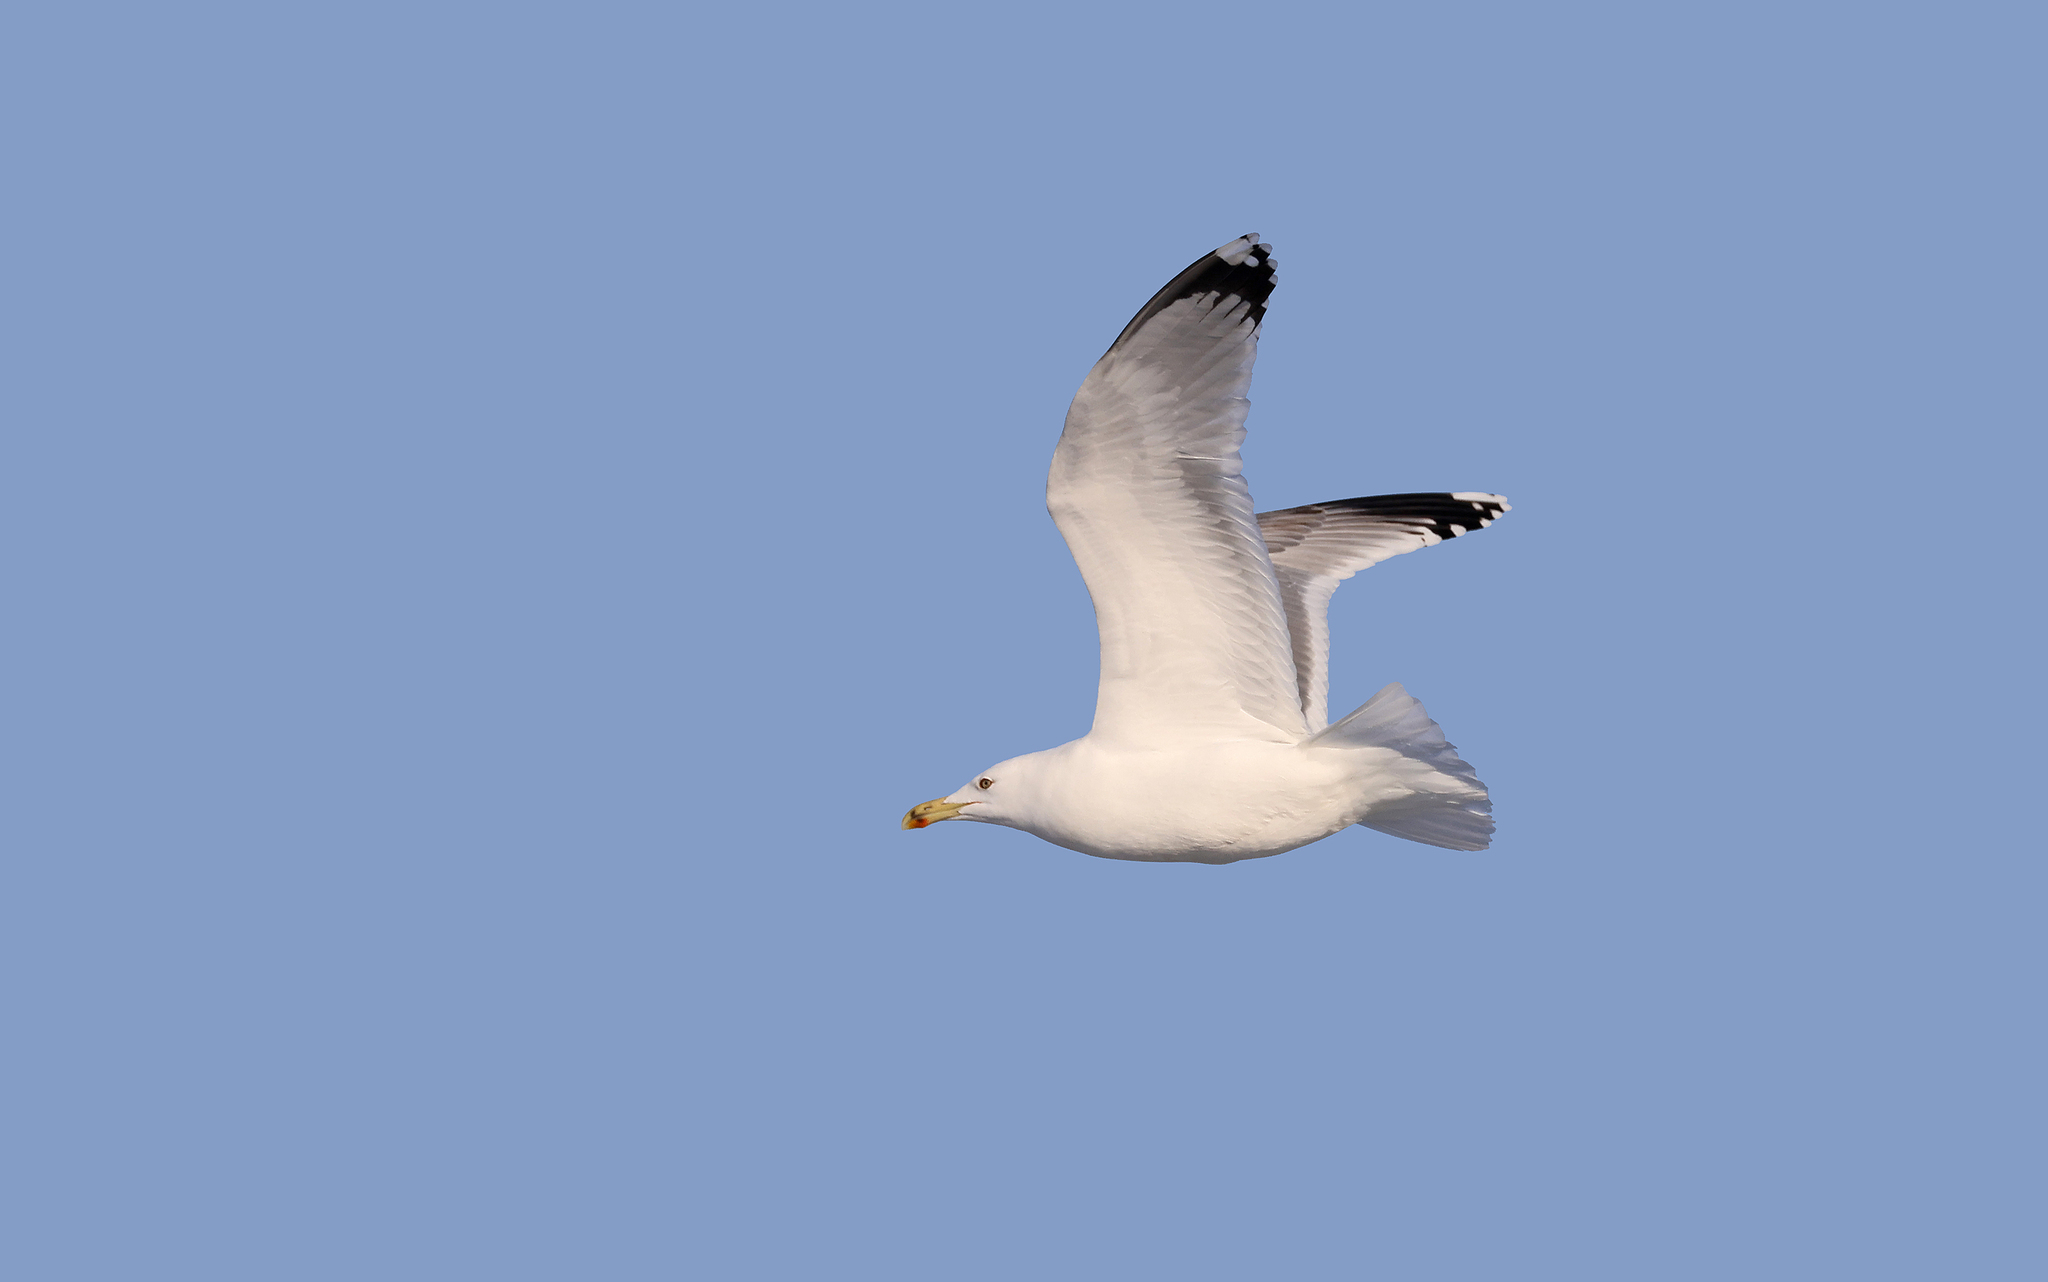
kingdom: Animalia
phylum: Chordata
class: Aves
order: Charadriiformes
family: Laridae
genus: Larus
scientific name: Larus michahellis
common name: Yellow-legged gull
